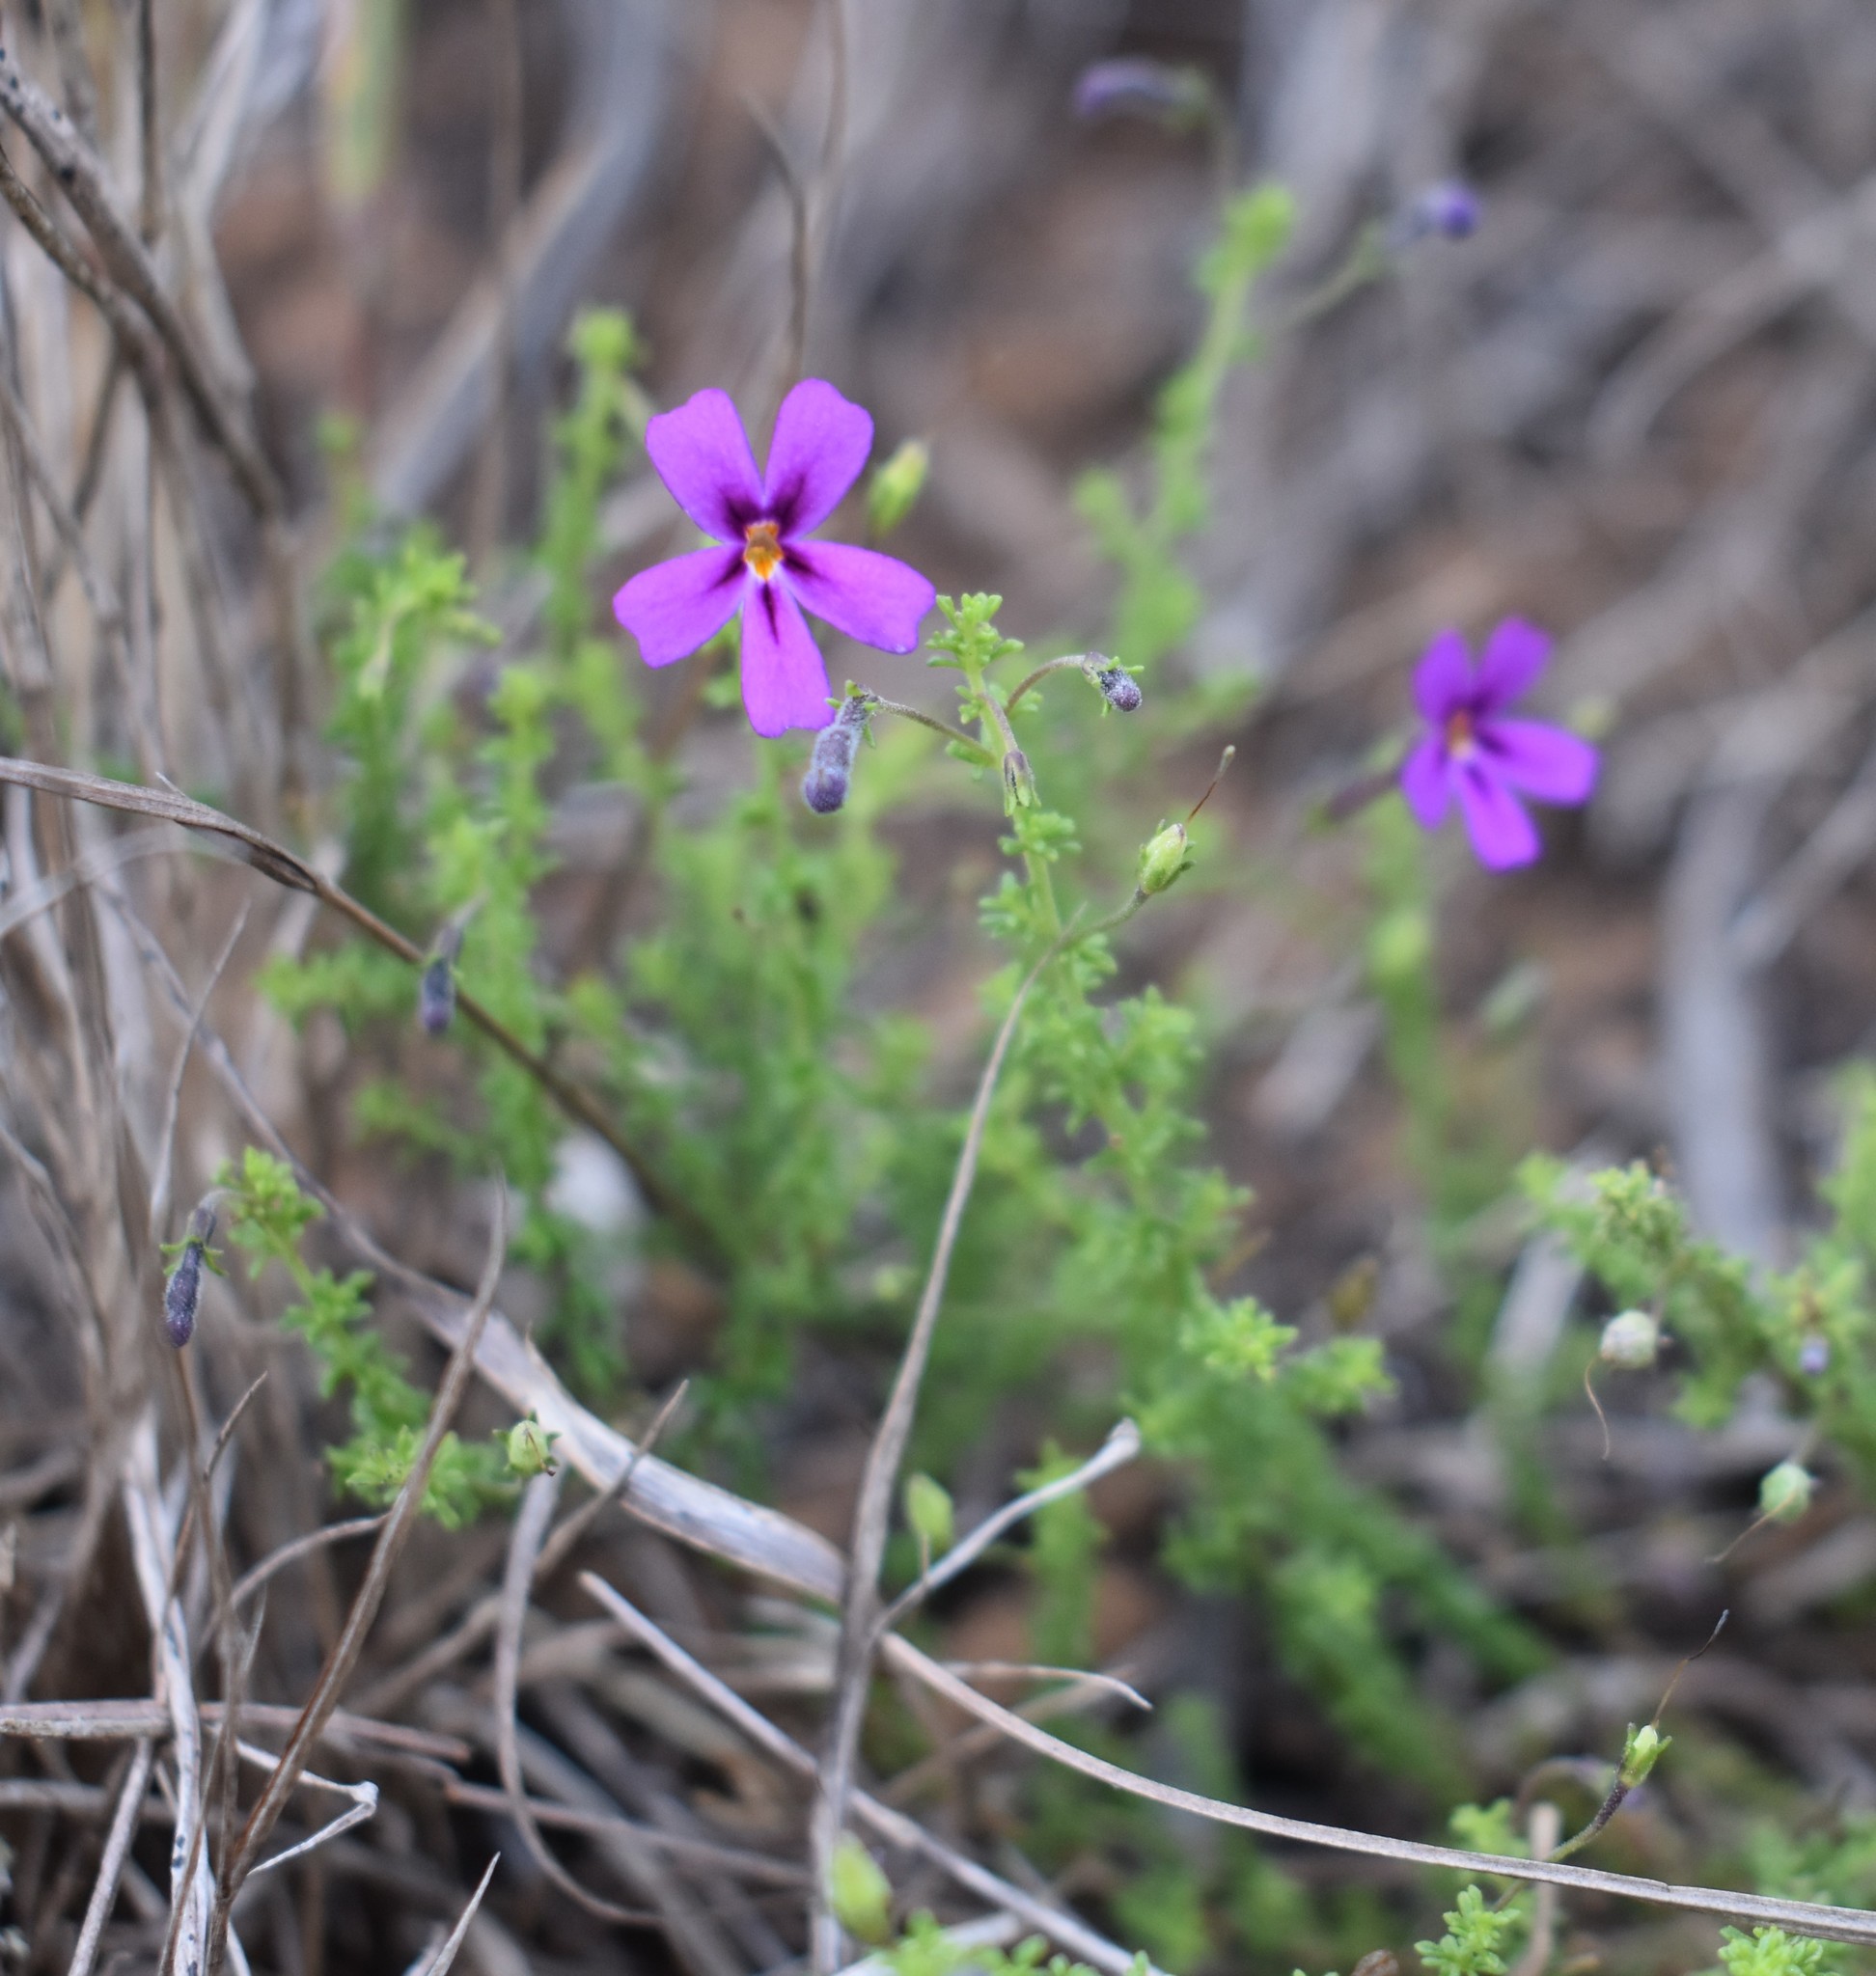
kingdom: Plantae
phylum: Tracheophyta
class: Magnoliopsida
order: Lamiales
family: Scrophulariaceae
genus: Jamesbrittenia
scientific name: Jamesbrittenia microphylla
